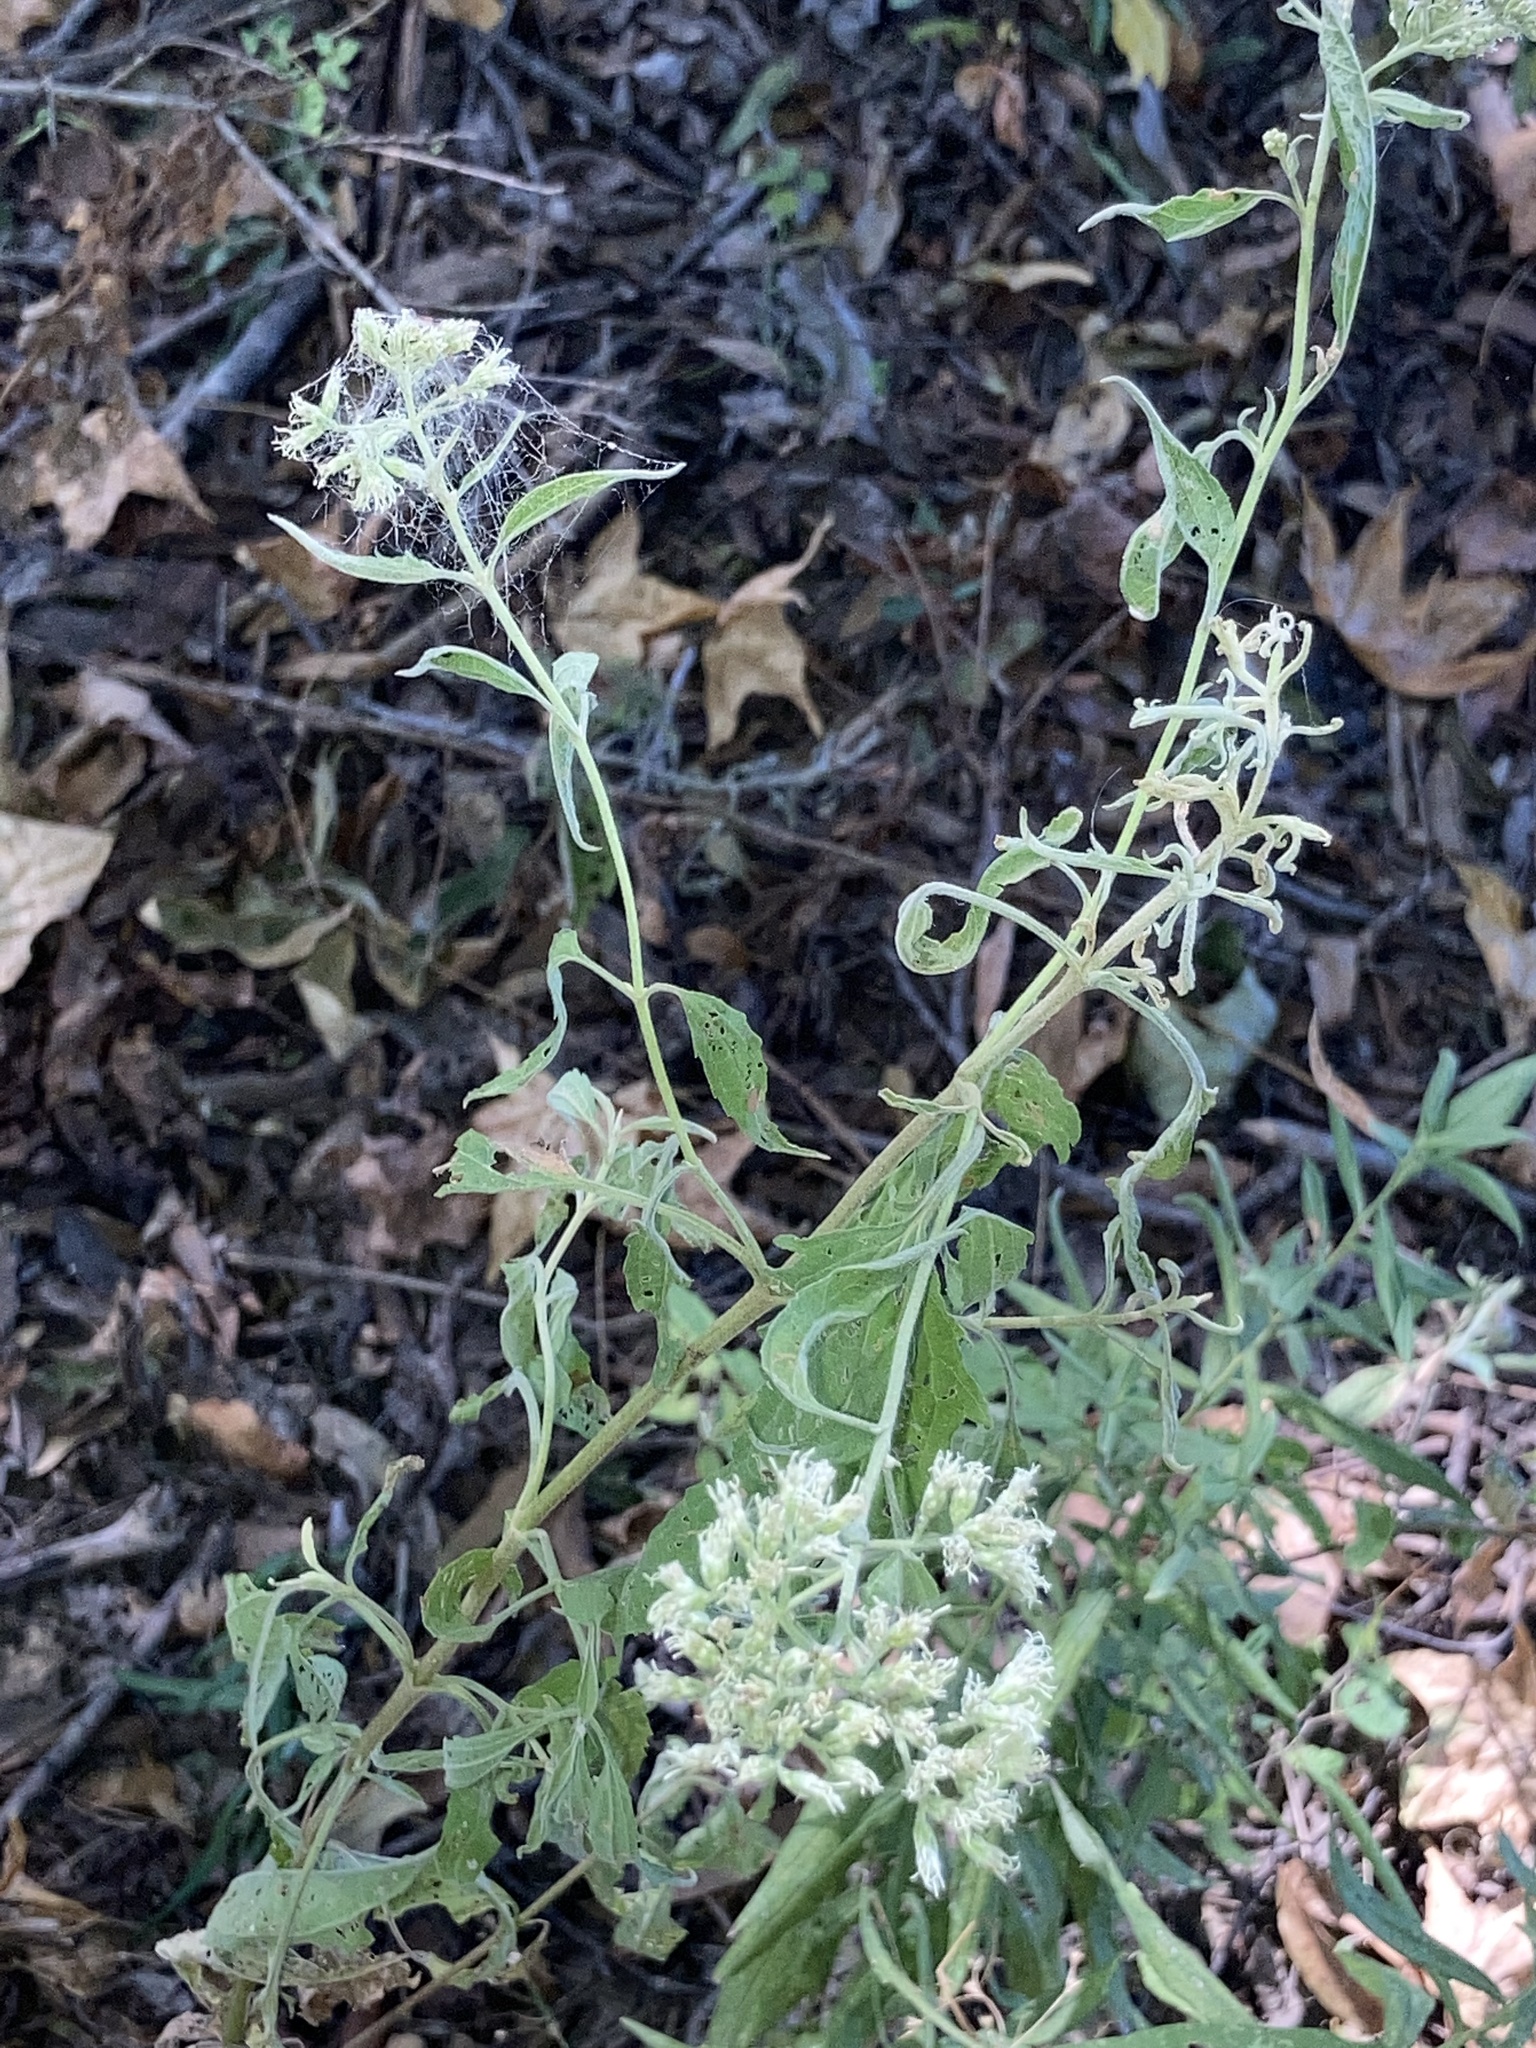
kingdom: Plantae
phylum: Tracheophyta
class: Magnoliopsida
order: Asterales
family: Asteraceae
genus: Eupatorium
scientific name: Eupatorium serotinum
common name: Late boneset
